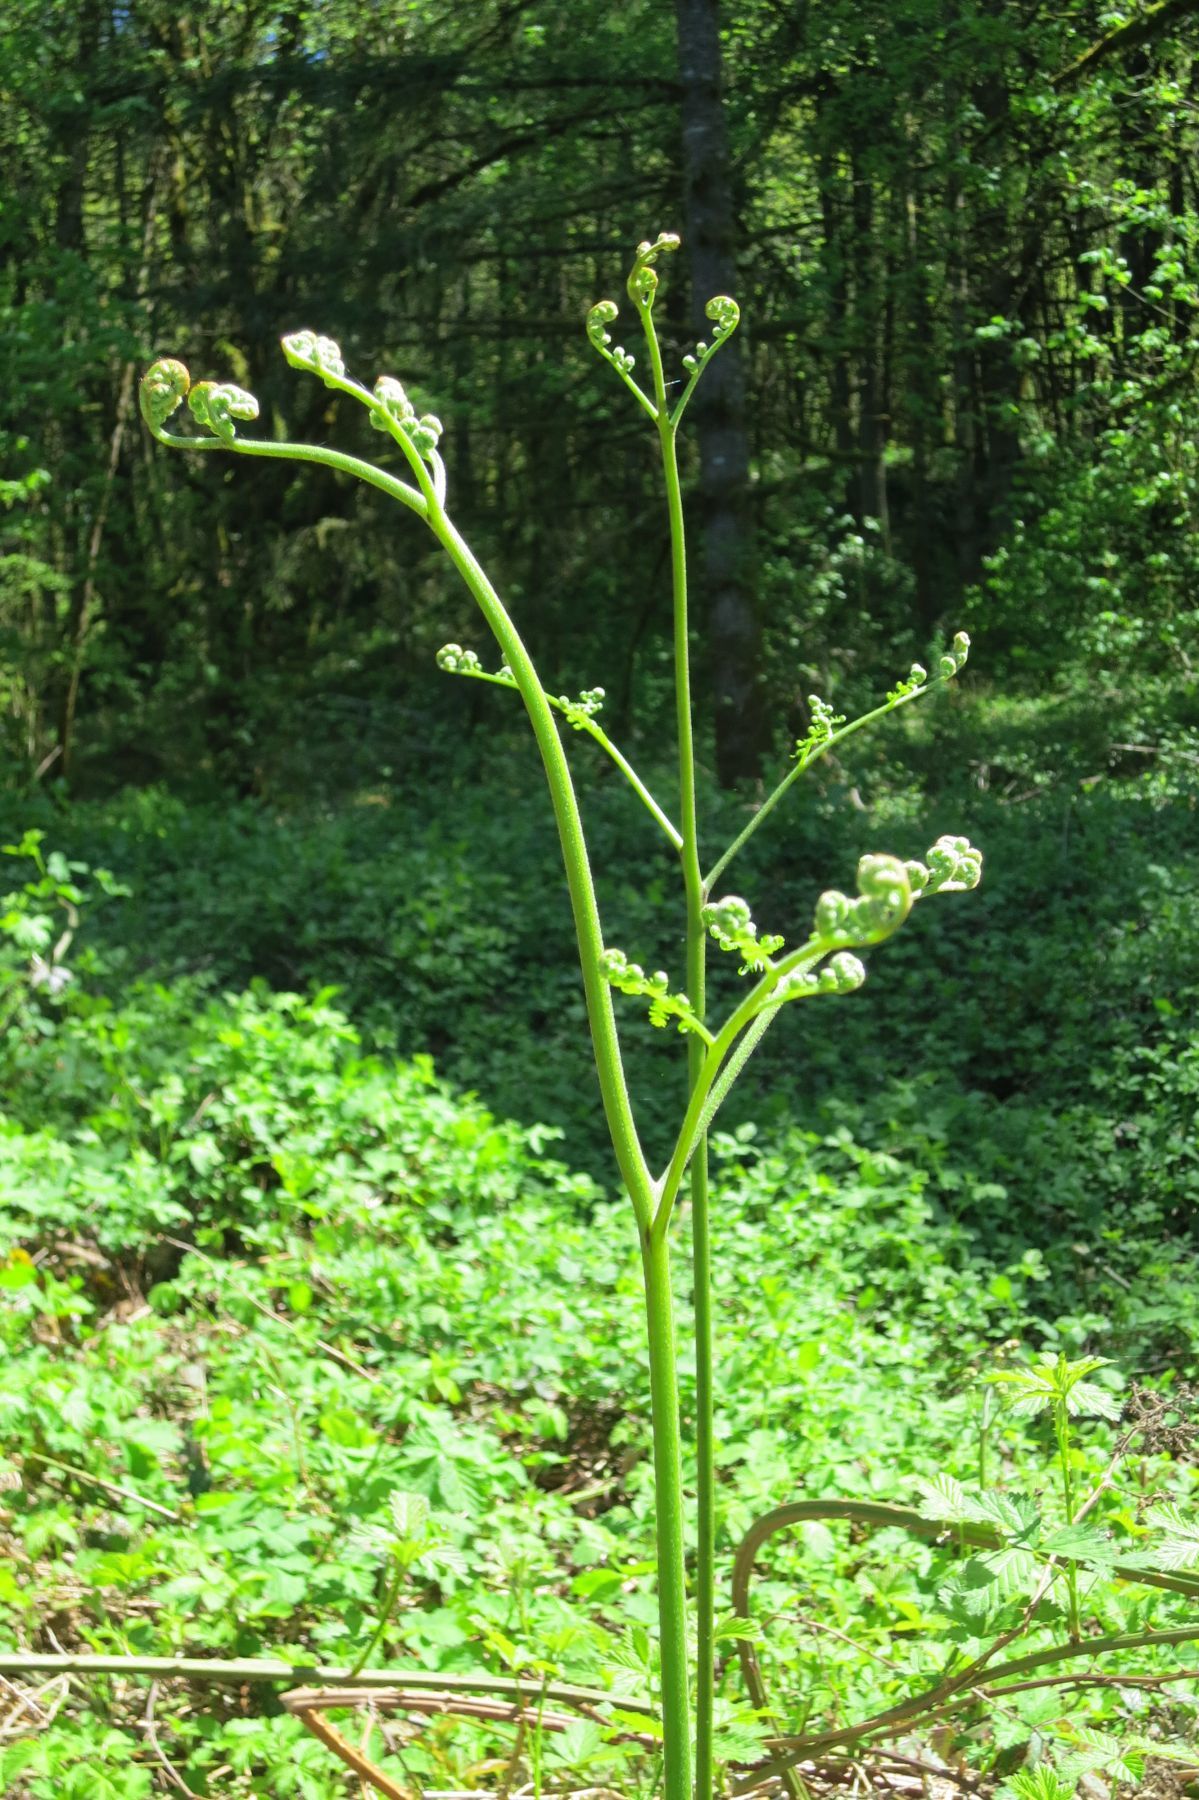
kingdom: Plantae
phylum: Tracheophyta
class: Polypodiopsida
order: Polypodiales
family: Dennstaedtiaceae
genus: Pteridium
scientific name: Pteridium aquilinum
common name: Bracken
